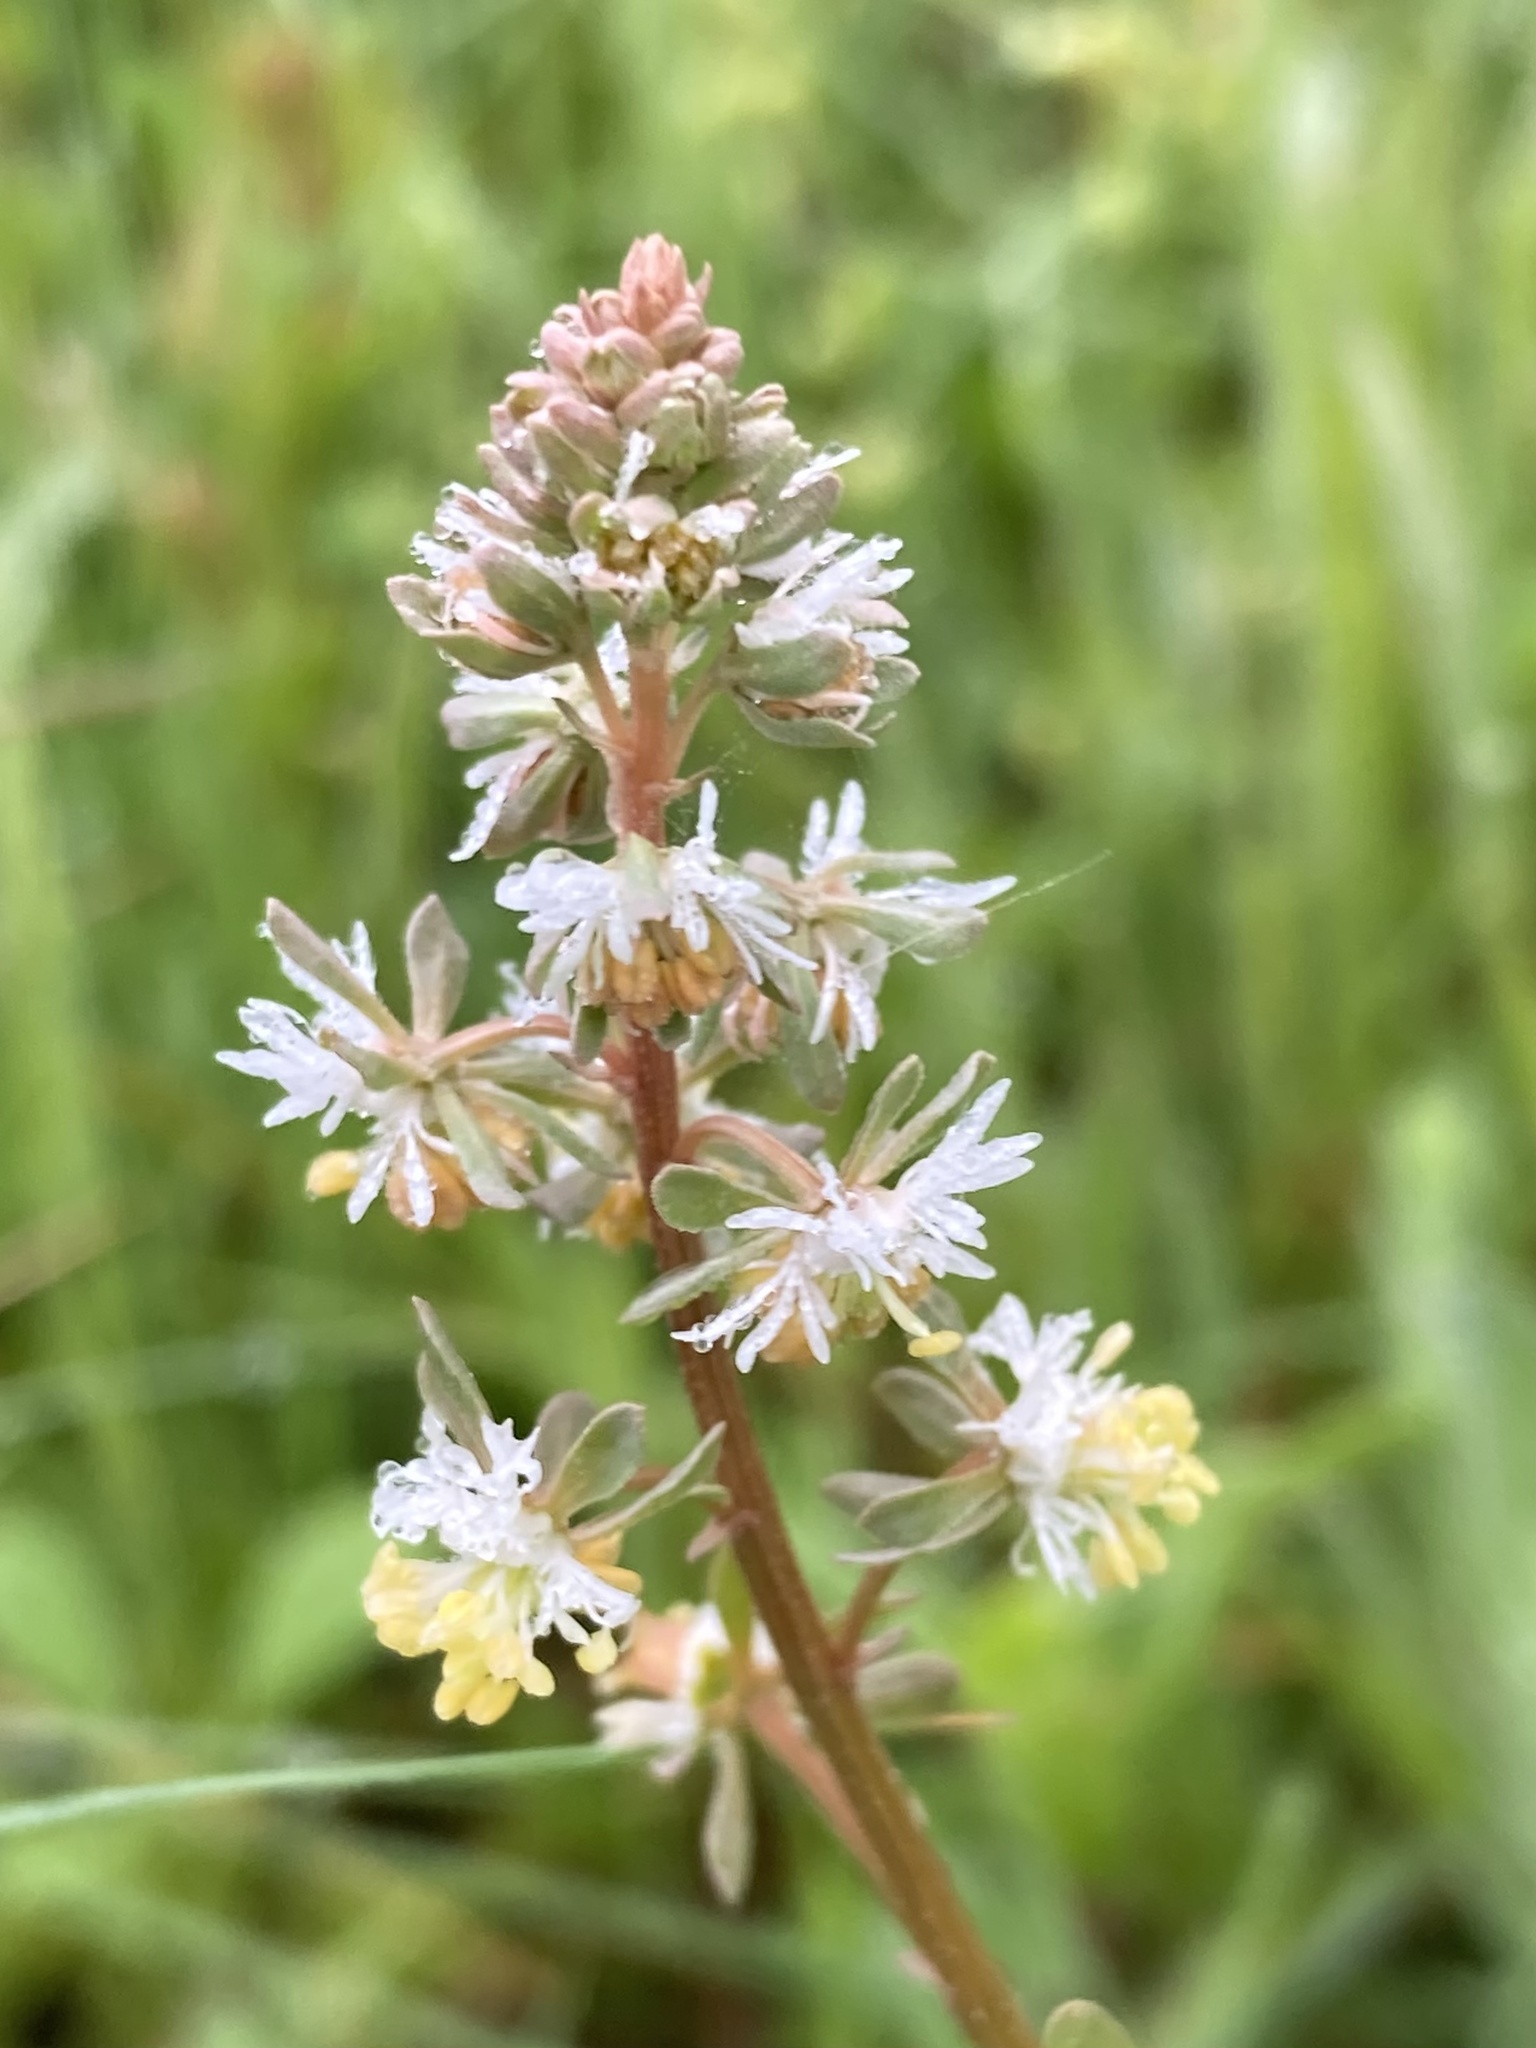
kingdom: Plantae
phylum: Tracheophyta
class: Magnoliopsida
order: Brassicales
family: Resedaceae
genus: Reseda
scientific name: Reseda media
